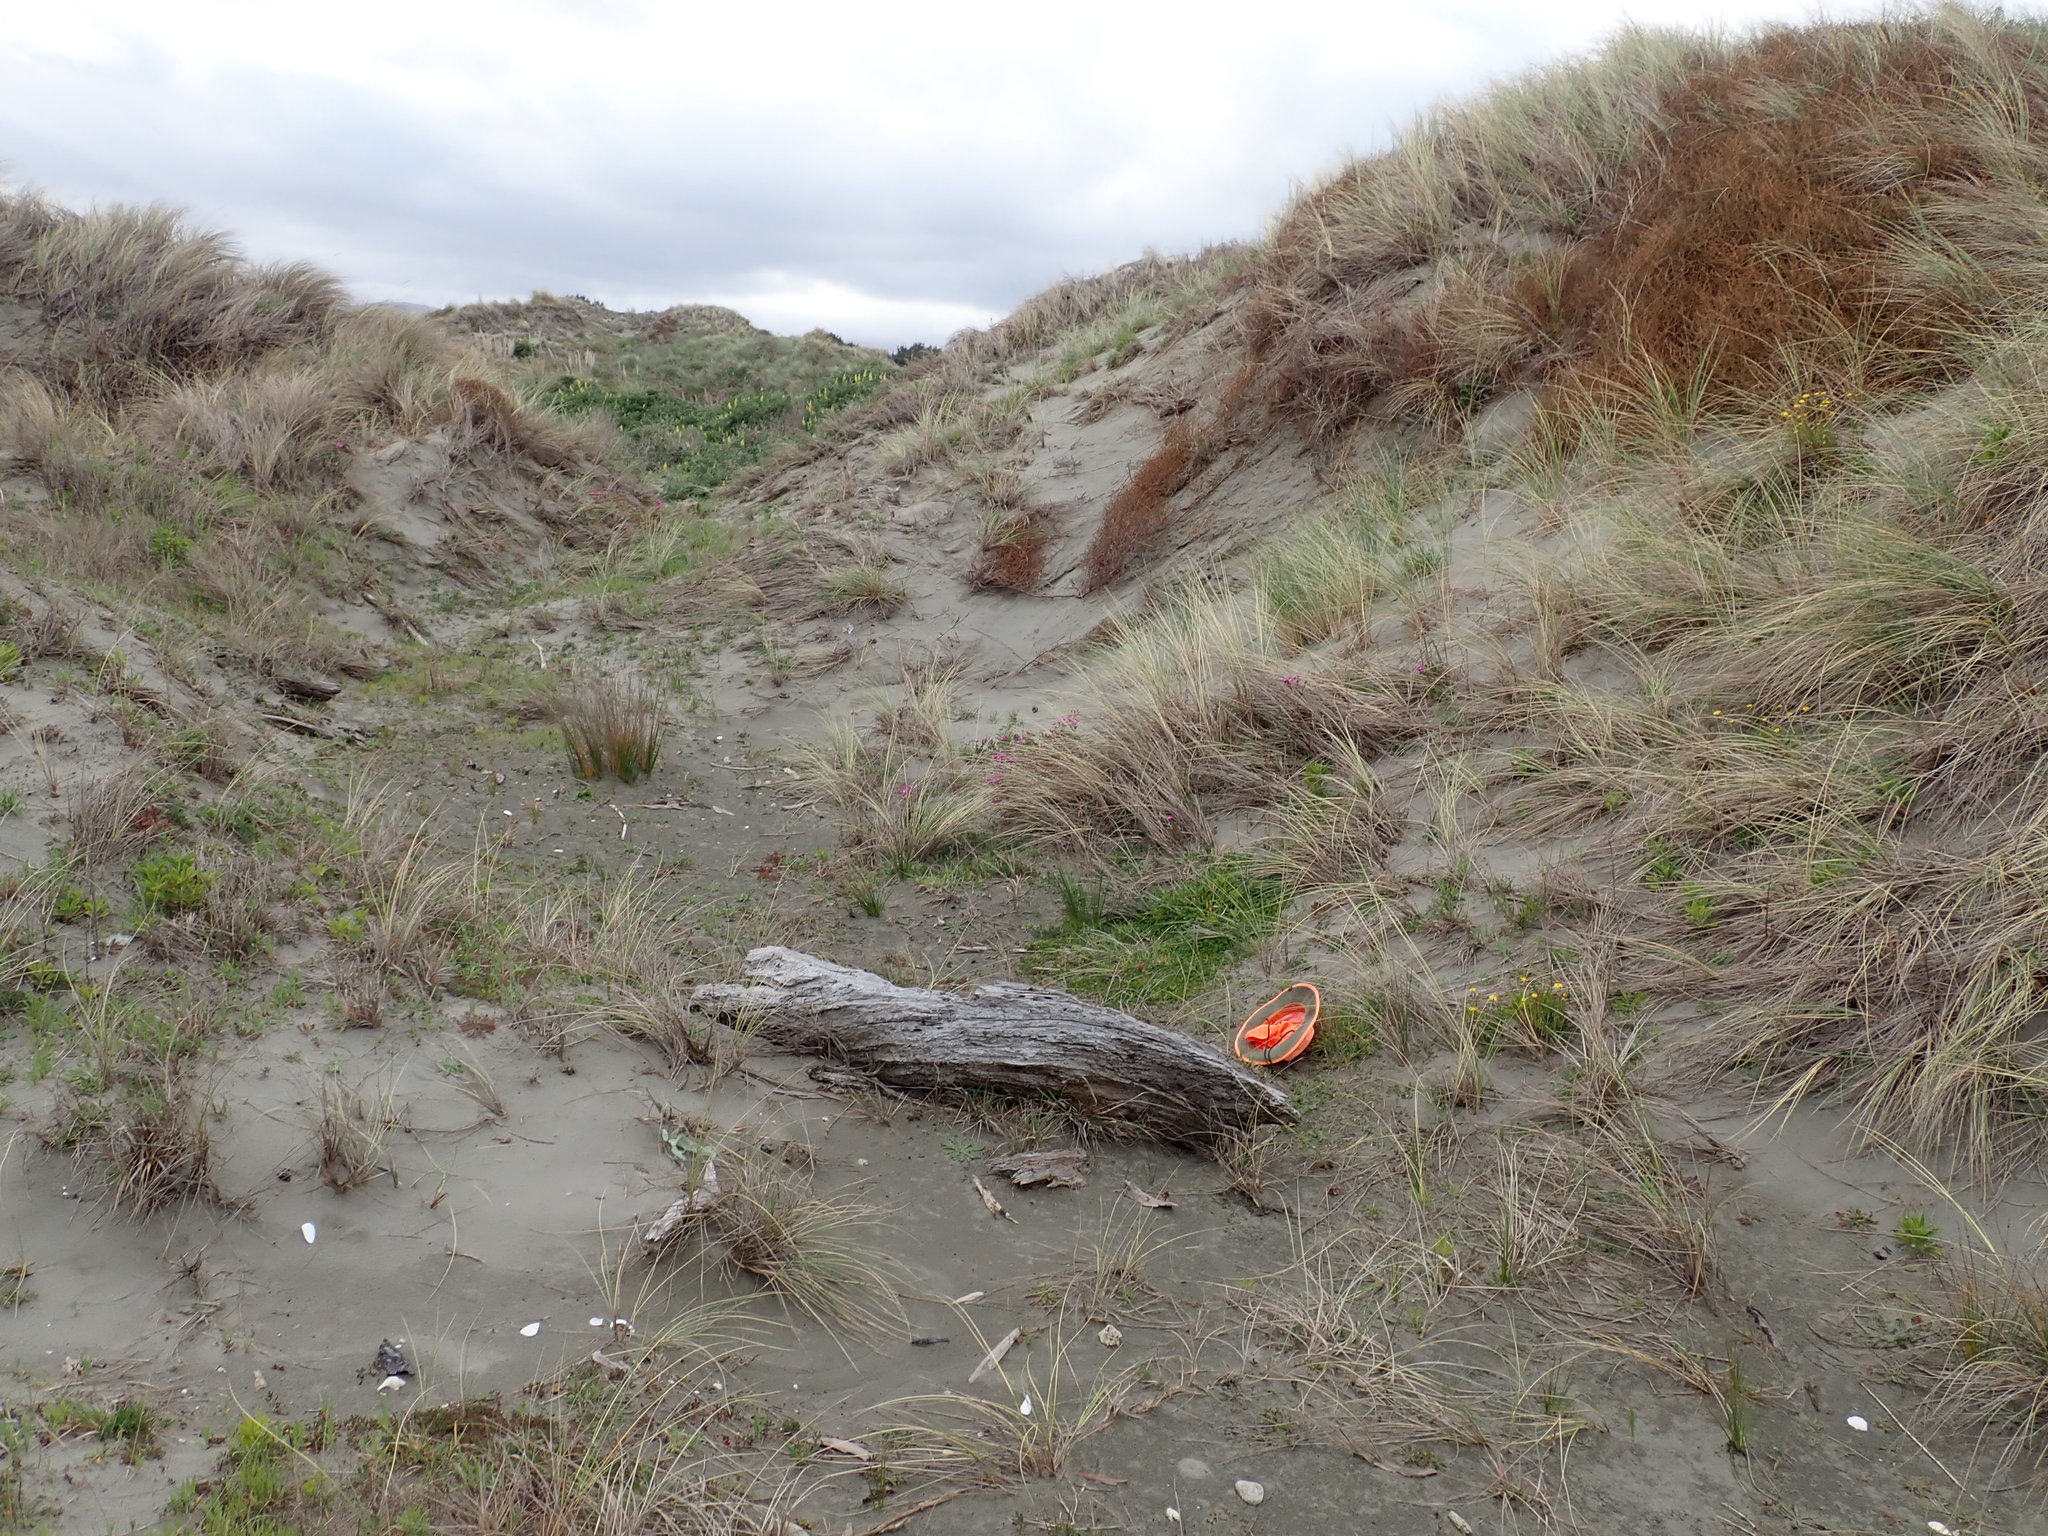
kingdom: Plantae
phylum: Tracheophyta
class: Magnoliopsida
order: Gentianales
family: Rubiaceae
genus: Coprosma
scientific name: Coprosma acerosa
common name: Sand coprosma
